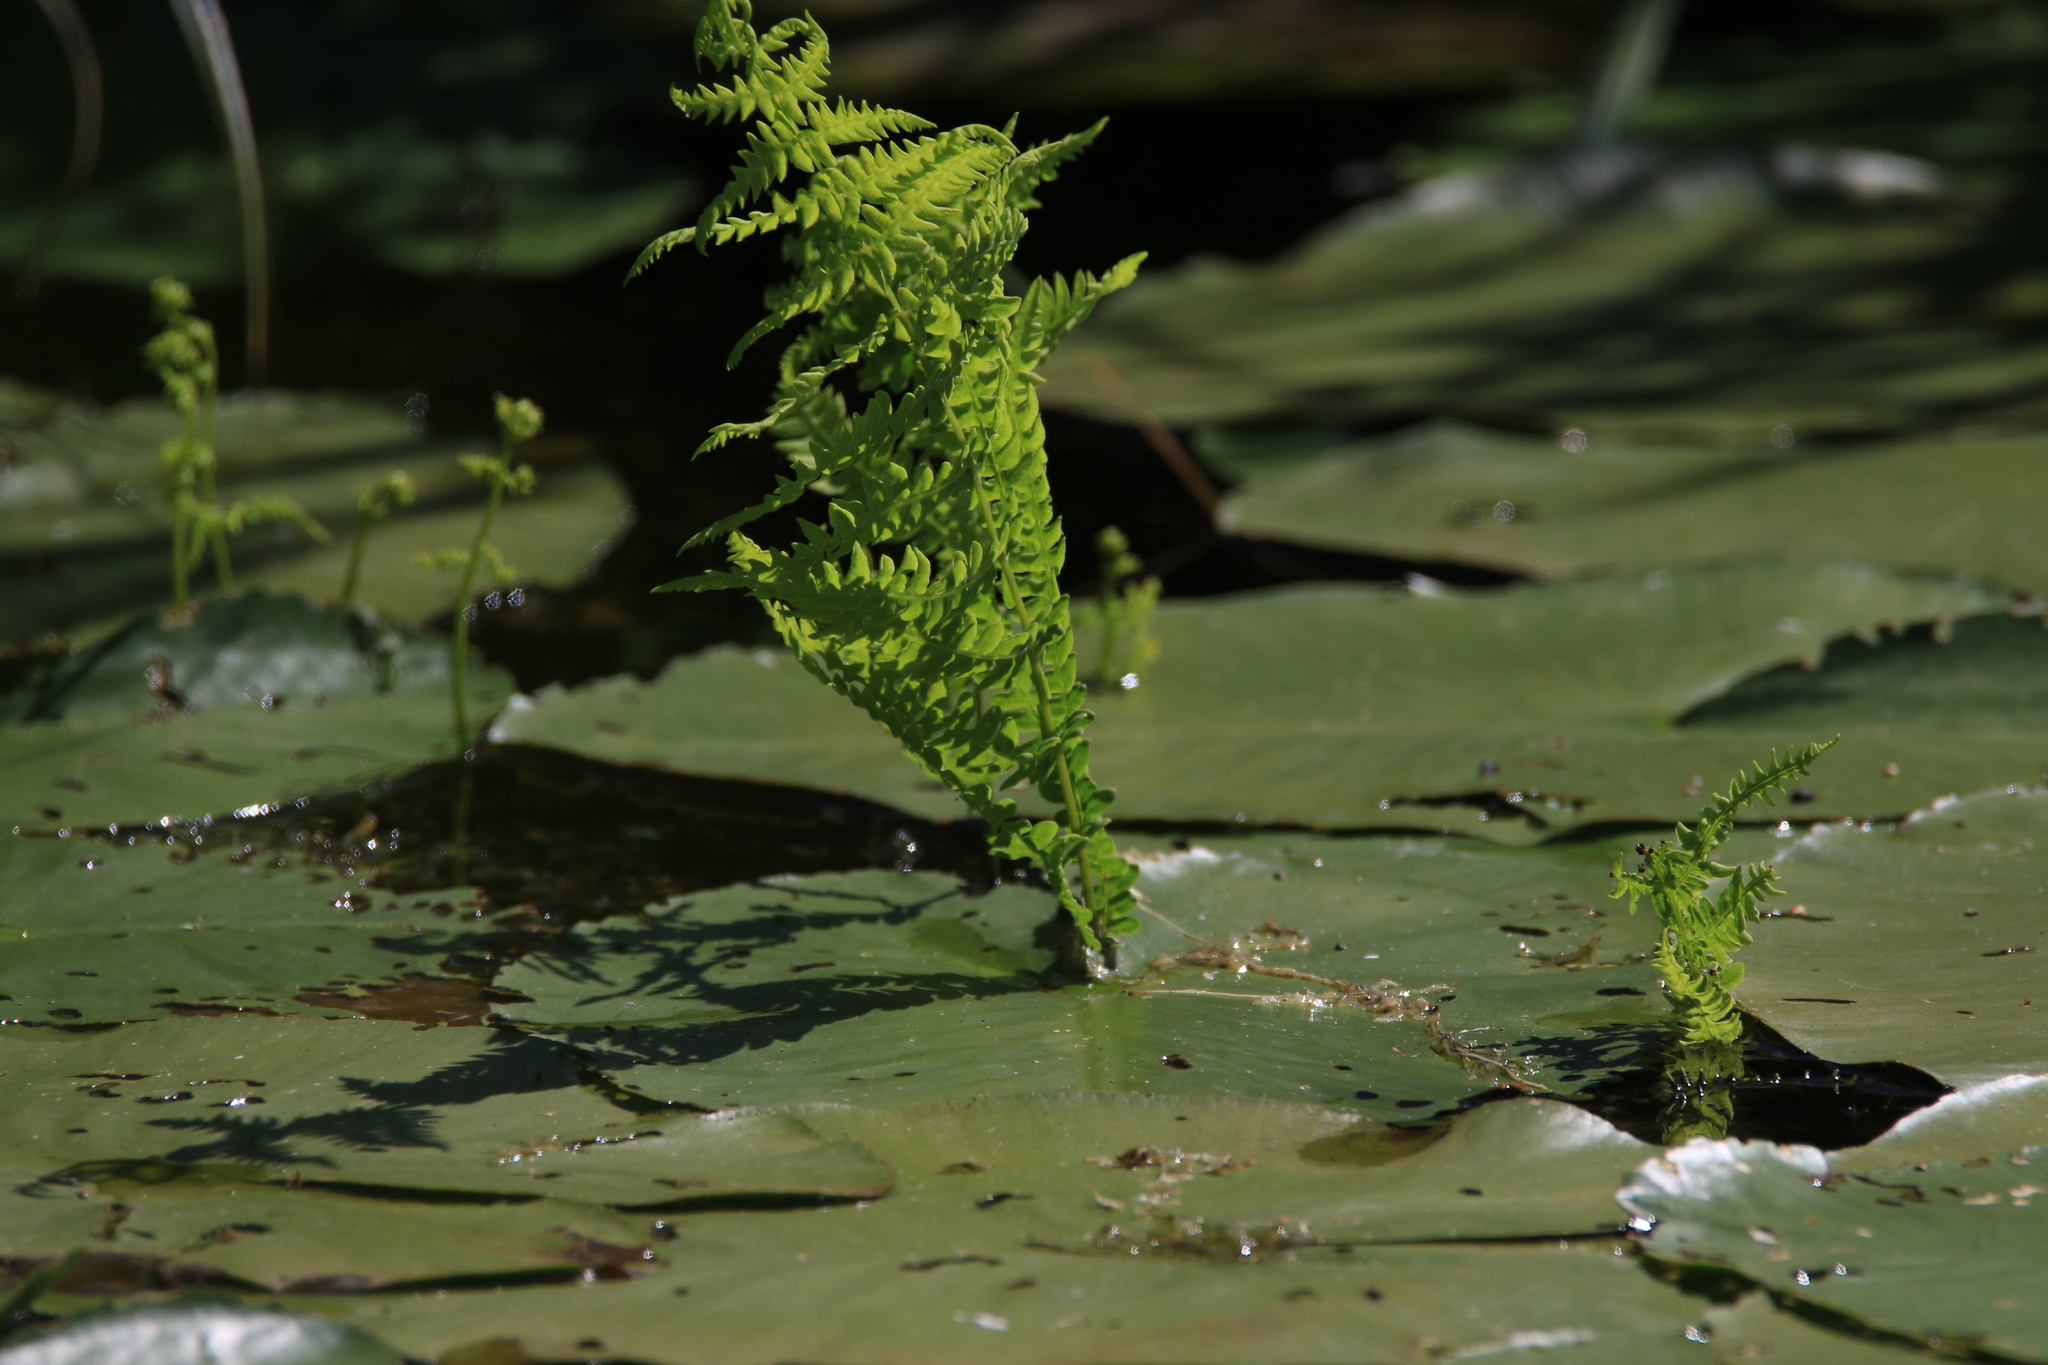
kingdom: Plantae
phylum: Tracheophyta
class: Polypodiopsida
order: Polypodiales
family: Thelypteridaceae
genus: Thelypteris
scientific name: Thelypteris palustris
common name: Marsh fern
